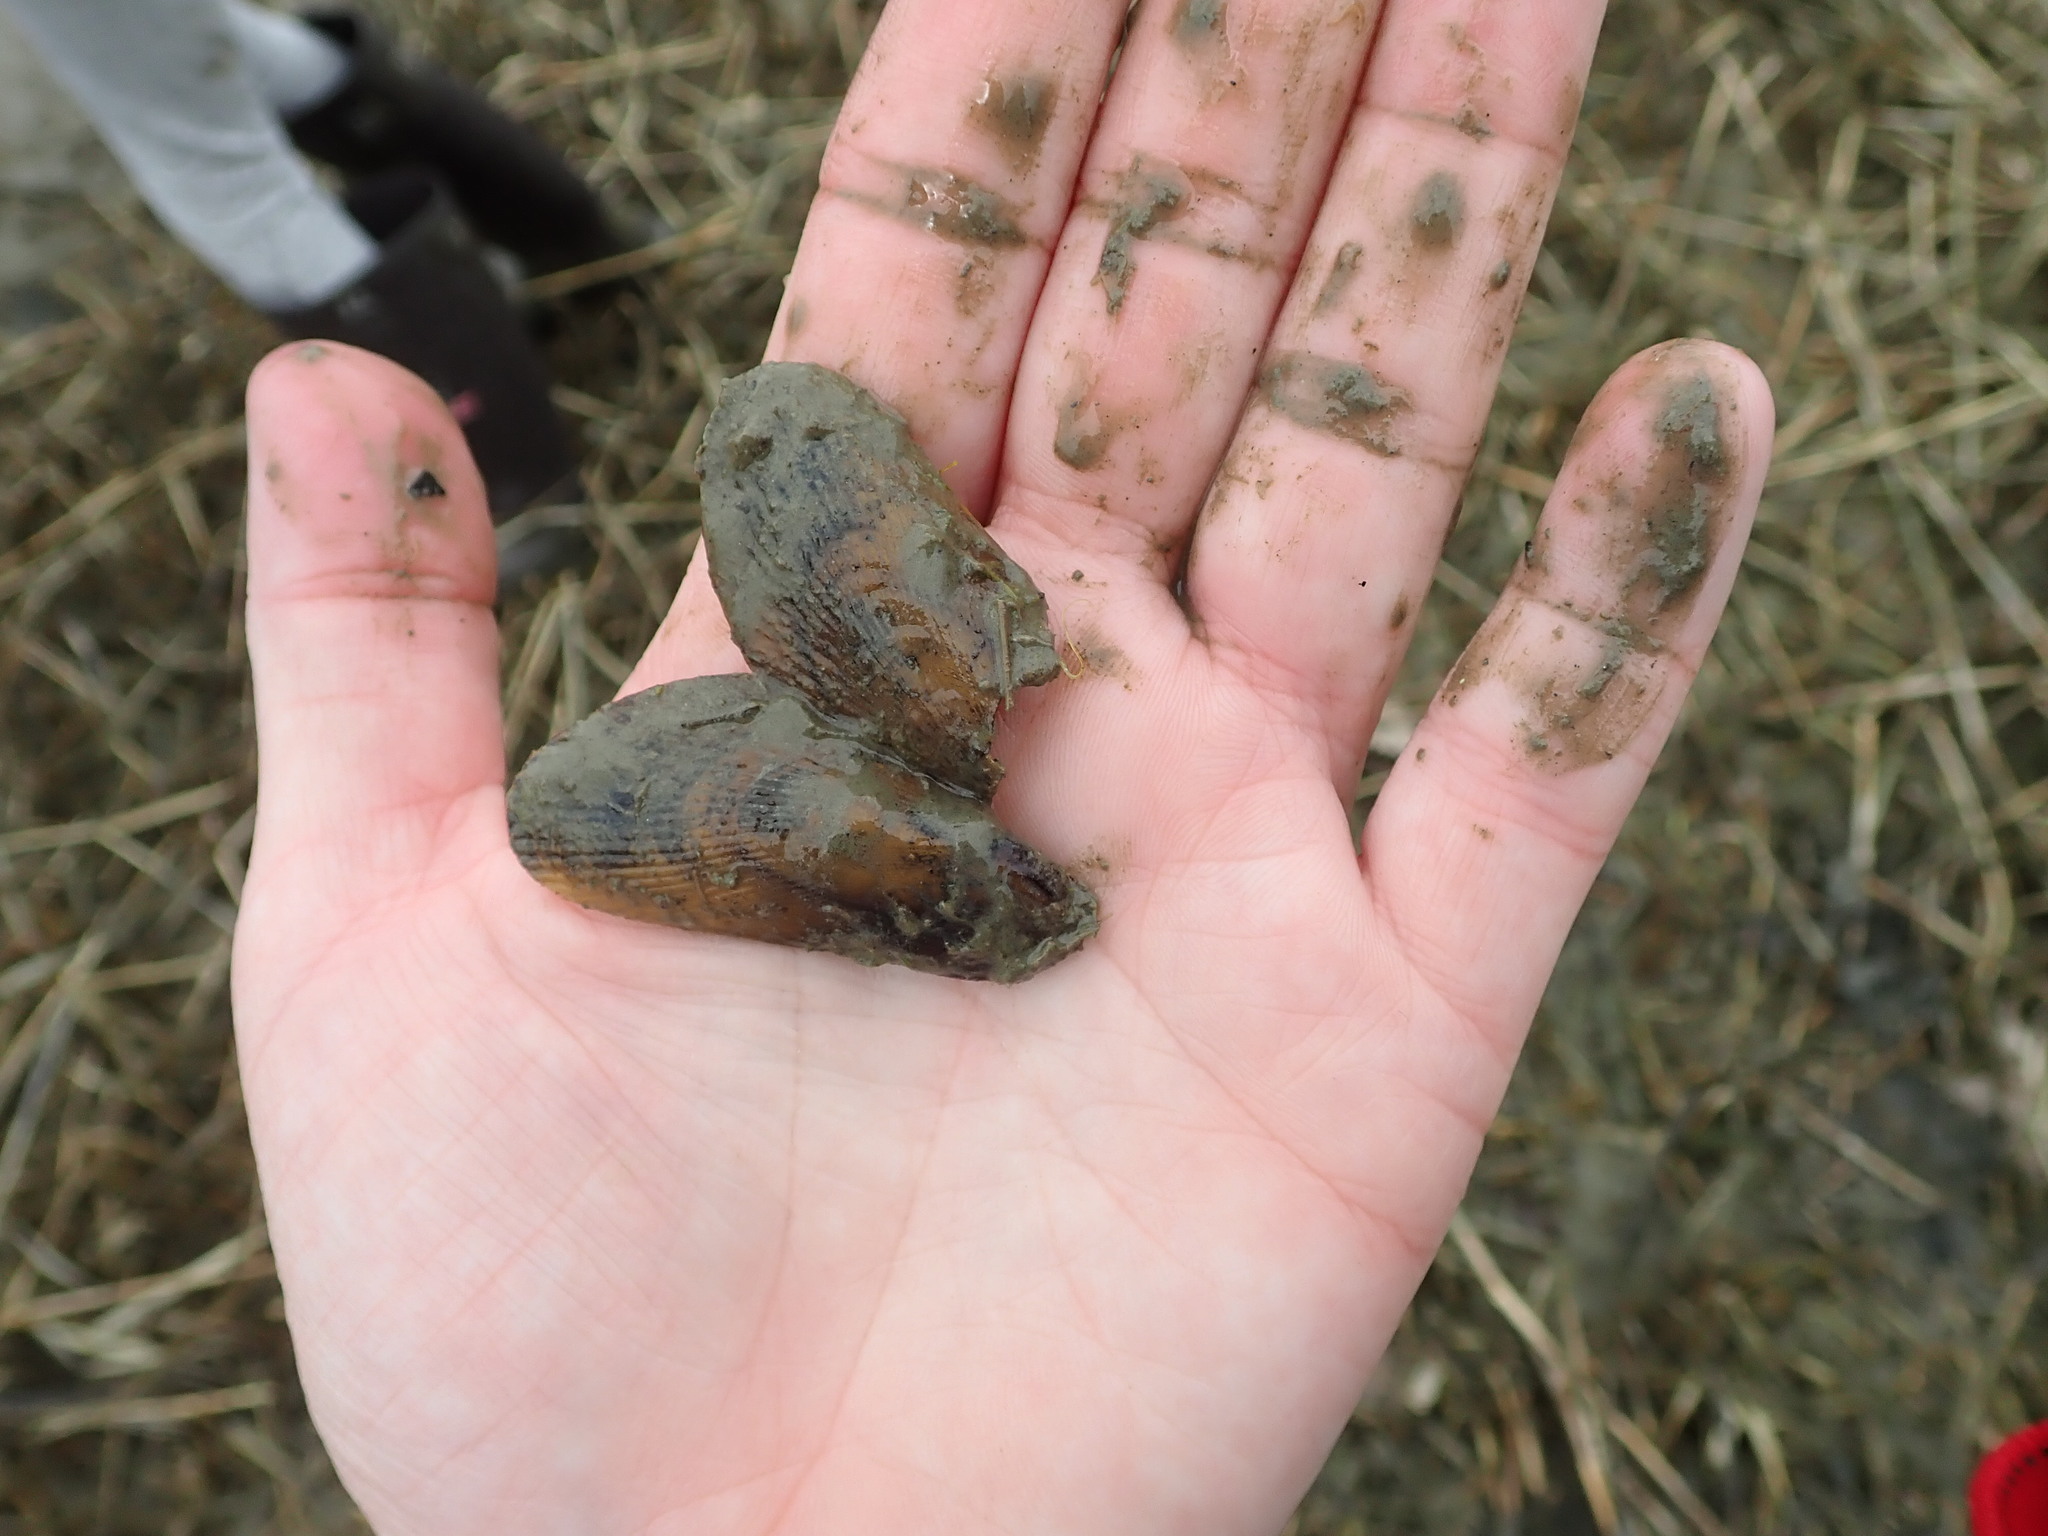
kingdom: Animalia
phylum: Mollusca
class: Bivalvia
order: Mytilida
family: Mytilidae
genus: Geukensia
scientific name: Geukensia demissa
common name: Ribbed mussel
